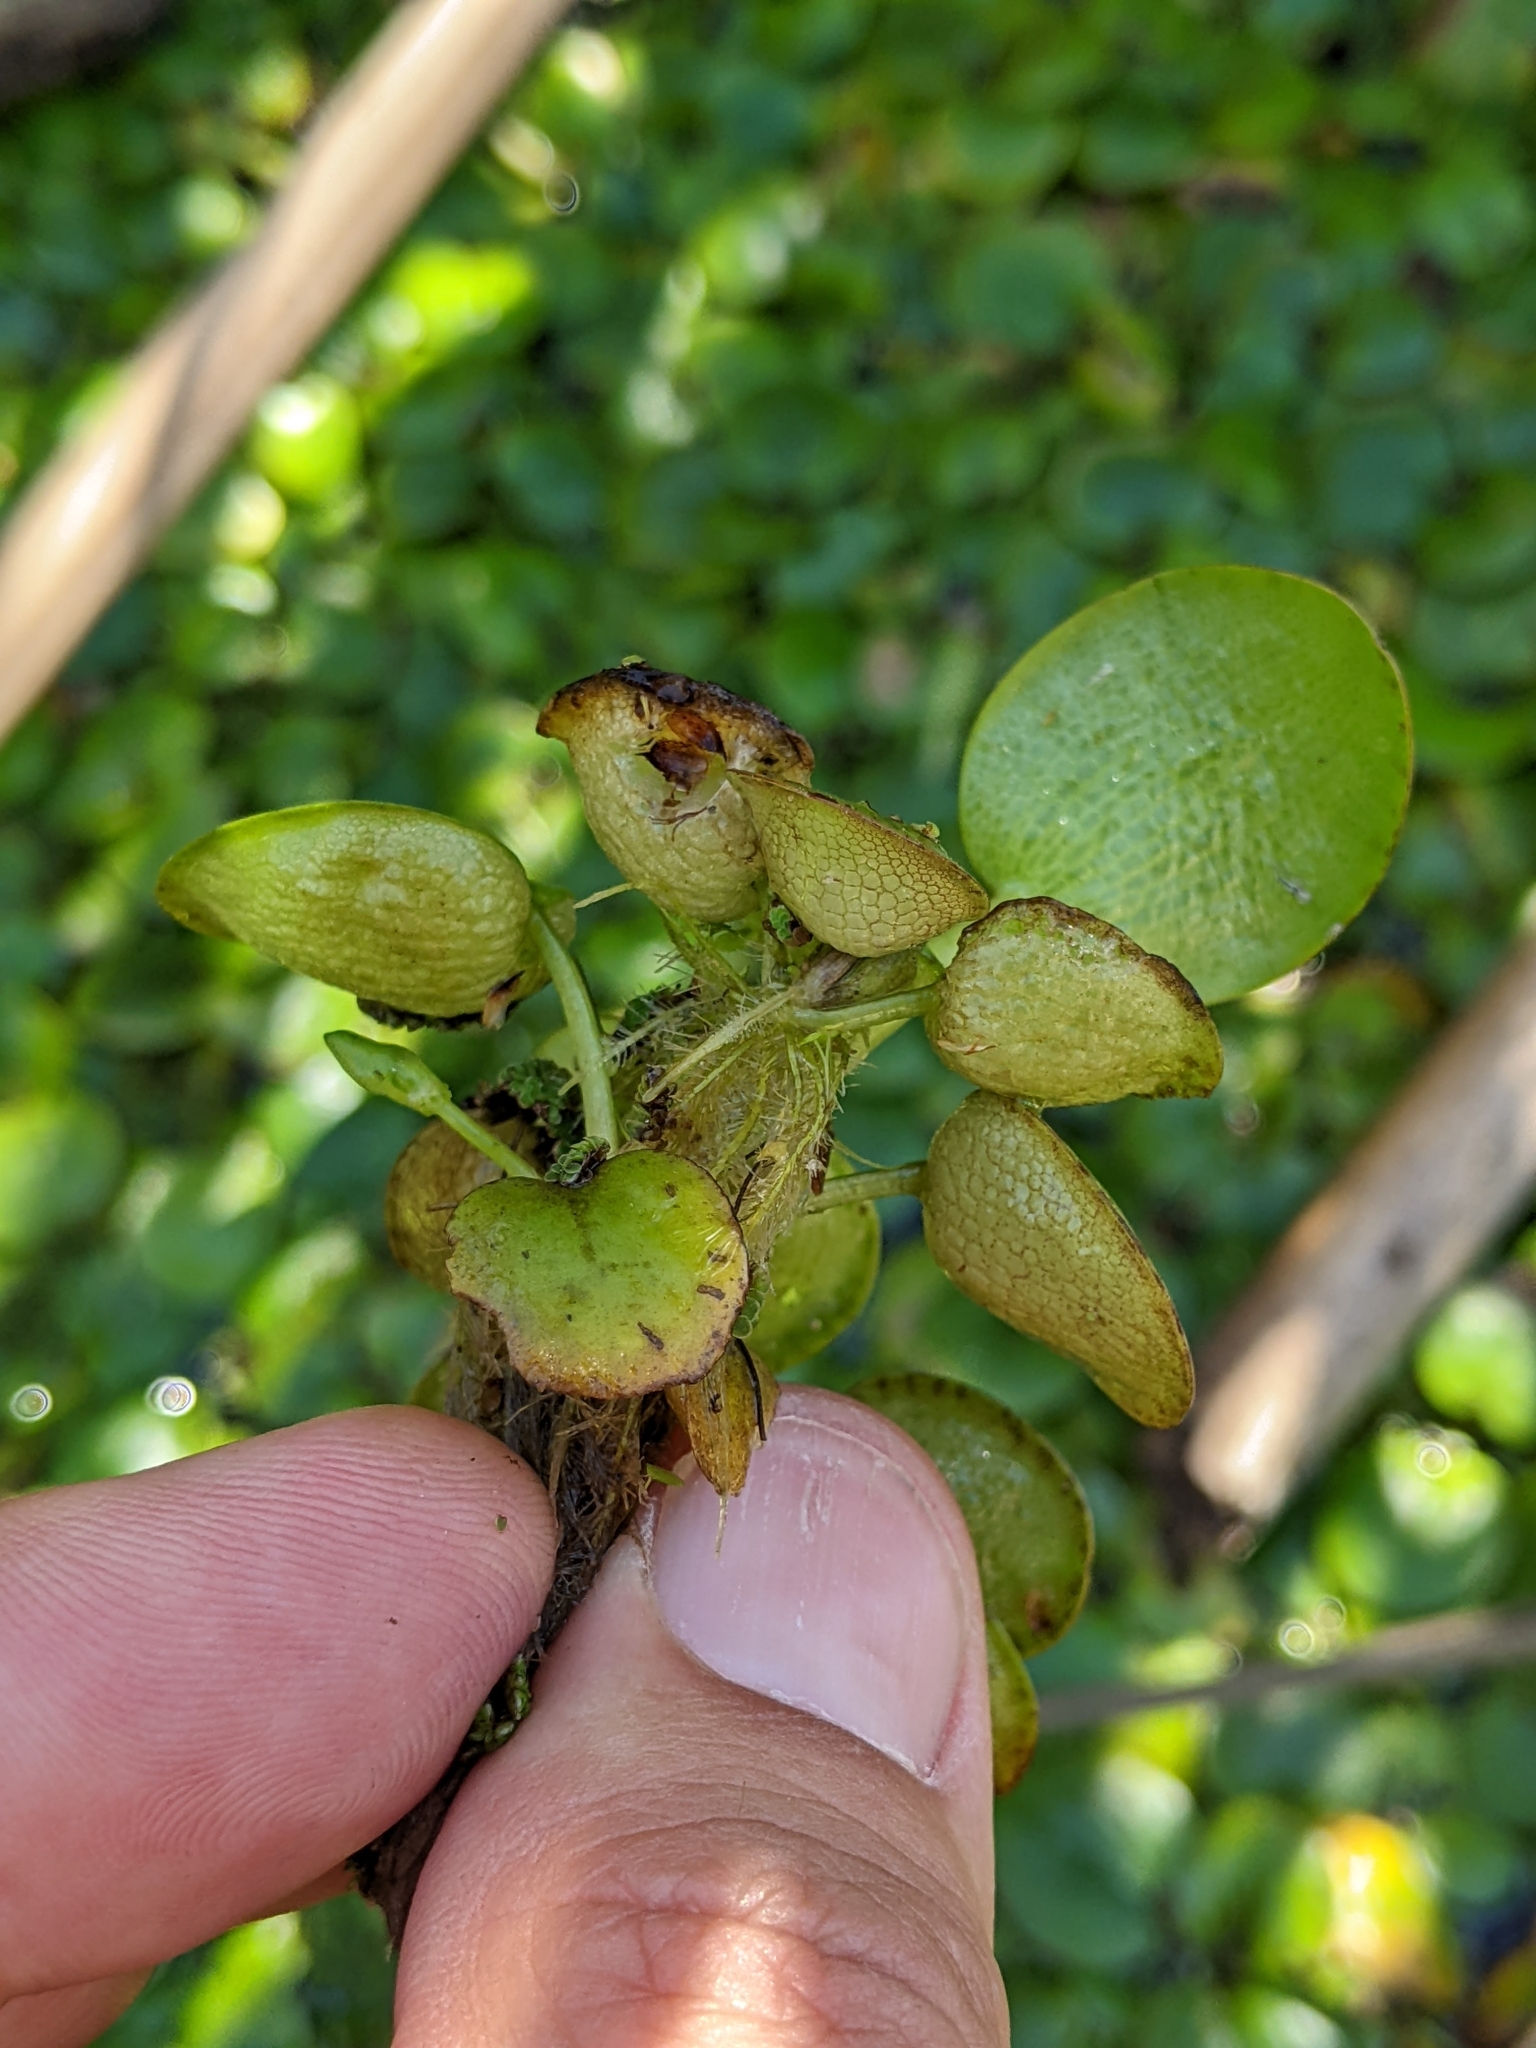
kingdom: Plantae
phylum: Tracheophyta
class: Liliopsida
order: Alismatales
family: Hydrocharitaceae
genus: Hydrocharis
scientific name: Hydrocharis laevigata
